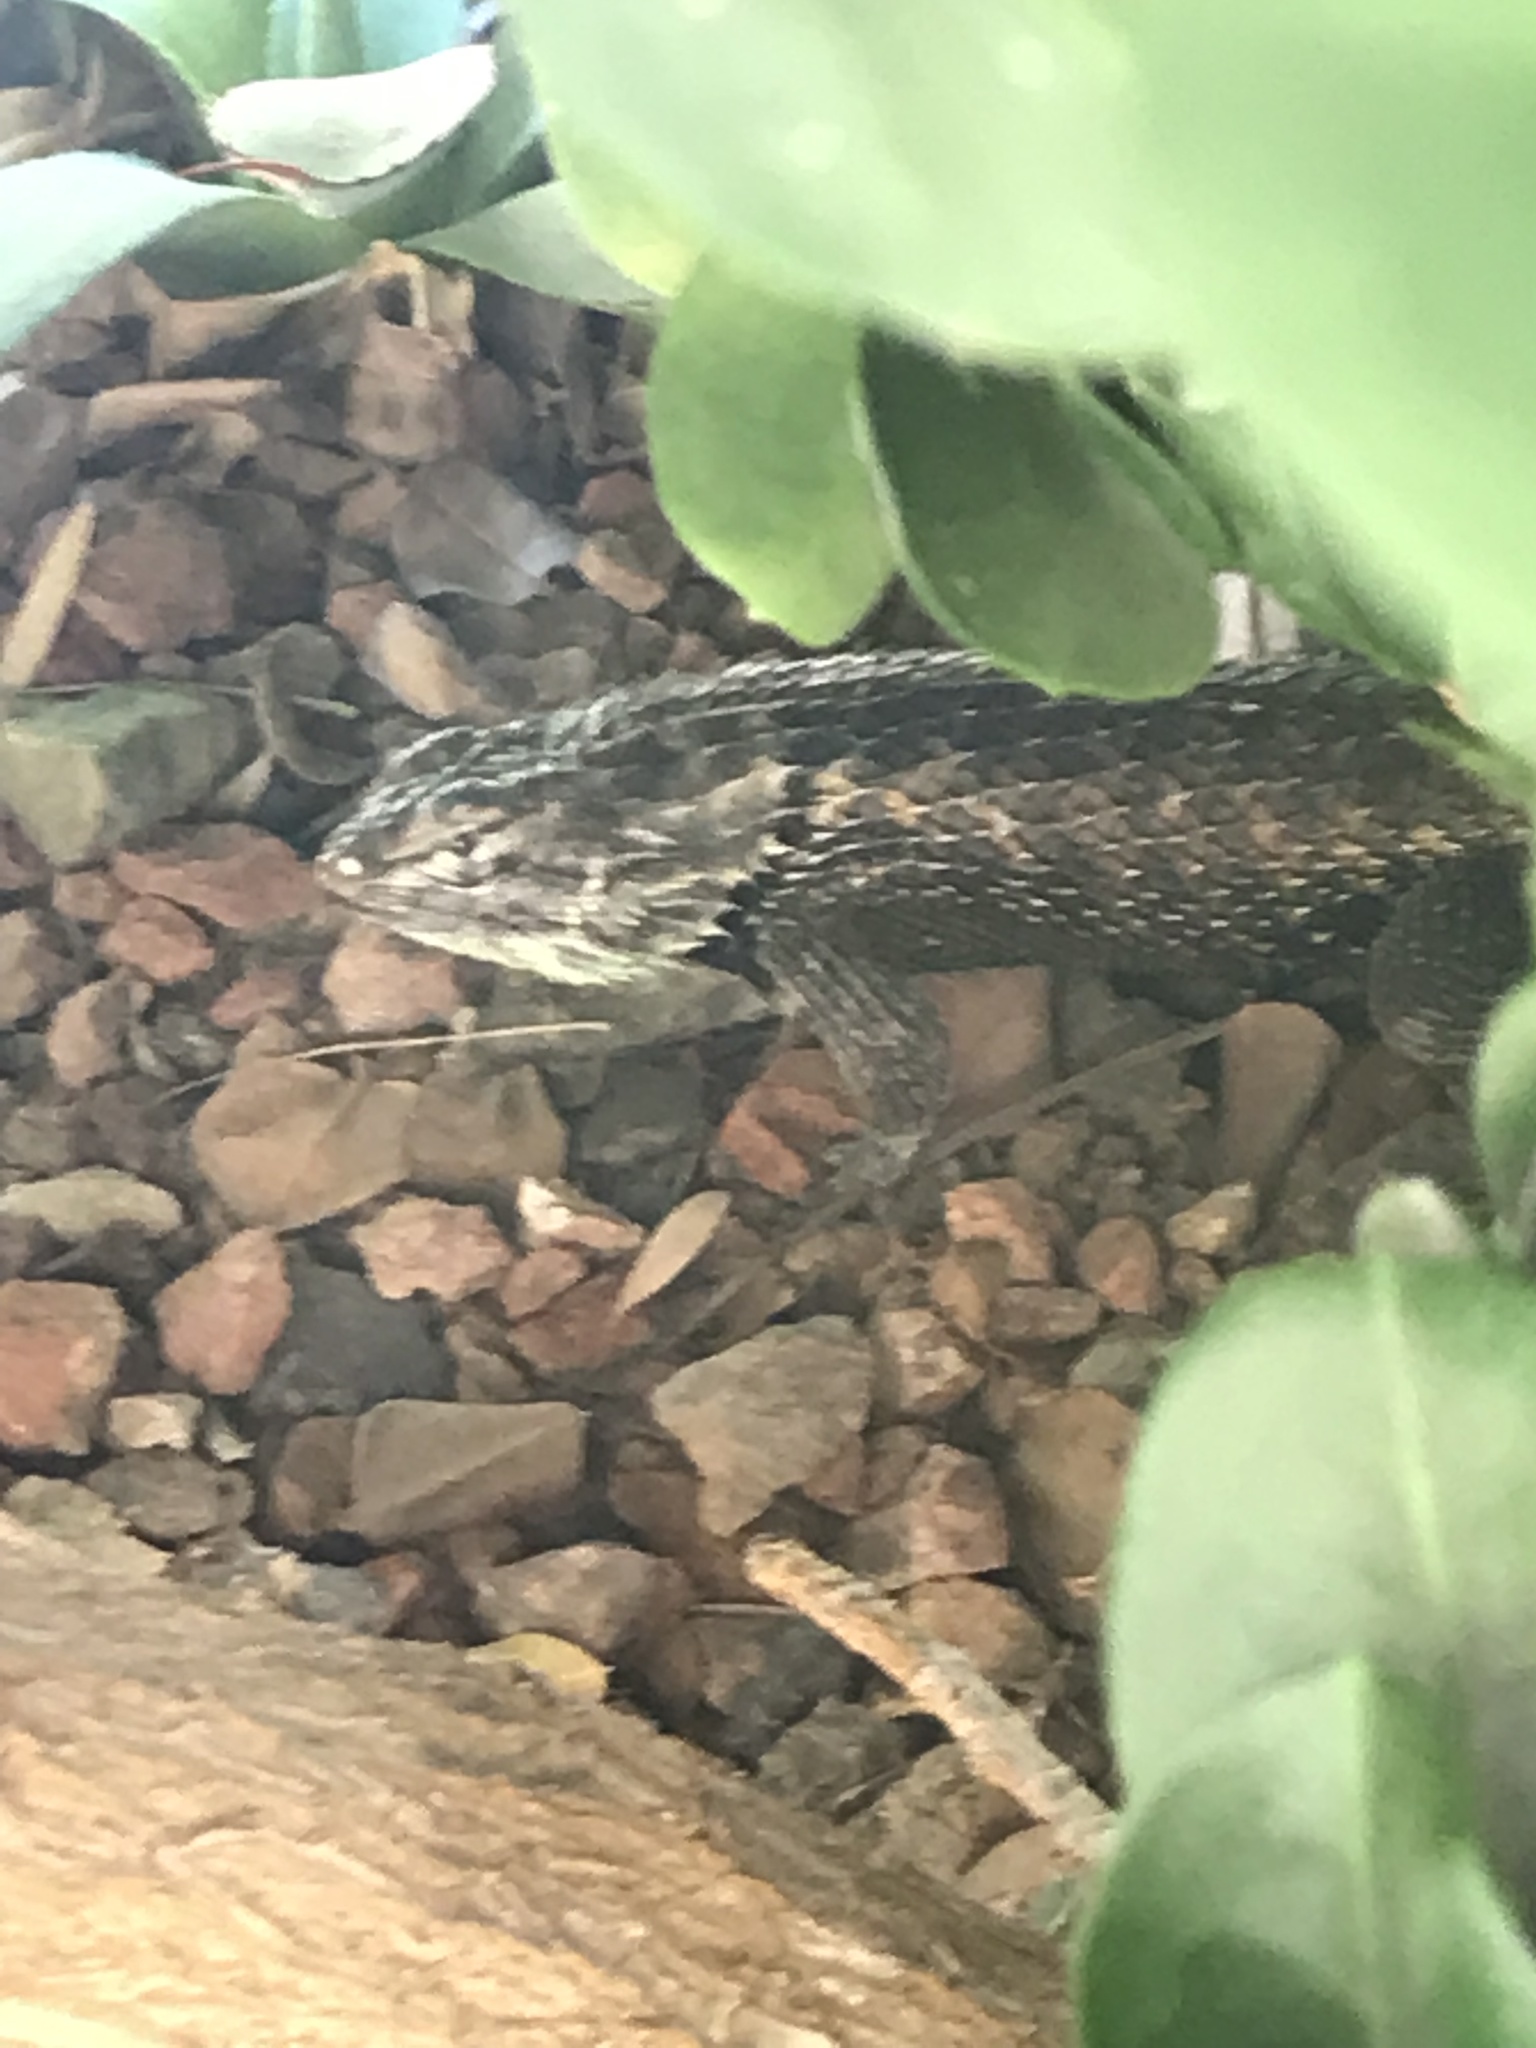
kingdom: Animalia
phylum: Chordata
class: Squamata
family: Phrynosomatidae
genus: Sceloporus
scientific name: Sceloporus magister
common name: Desert spiny lizard
